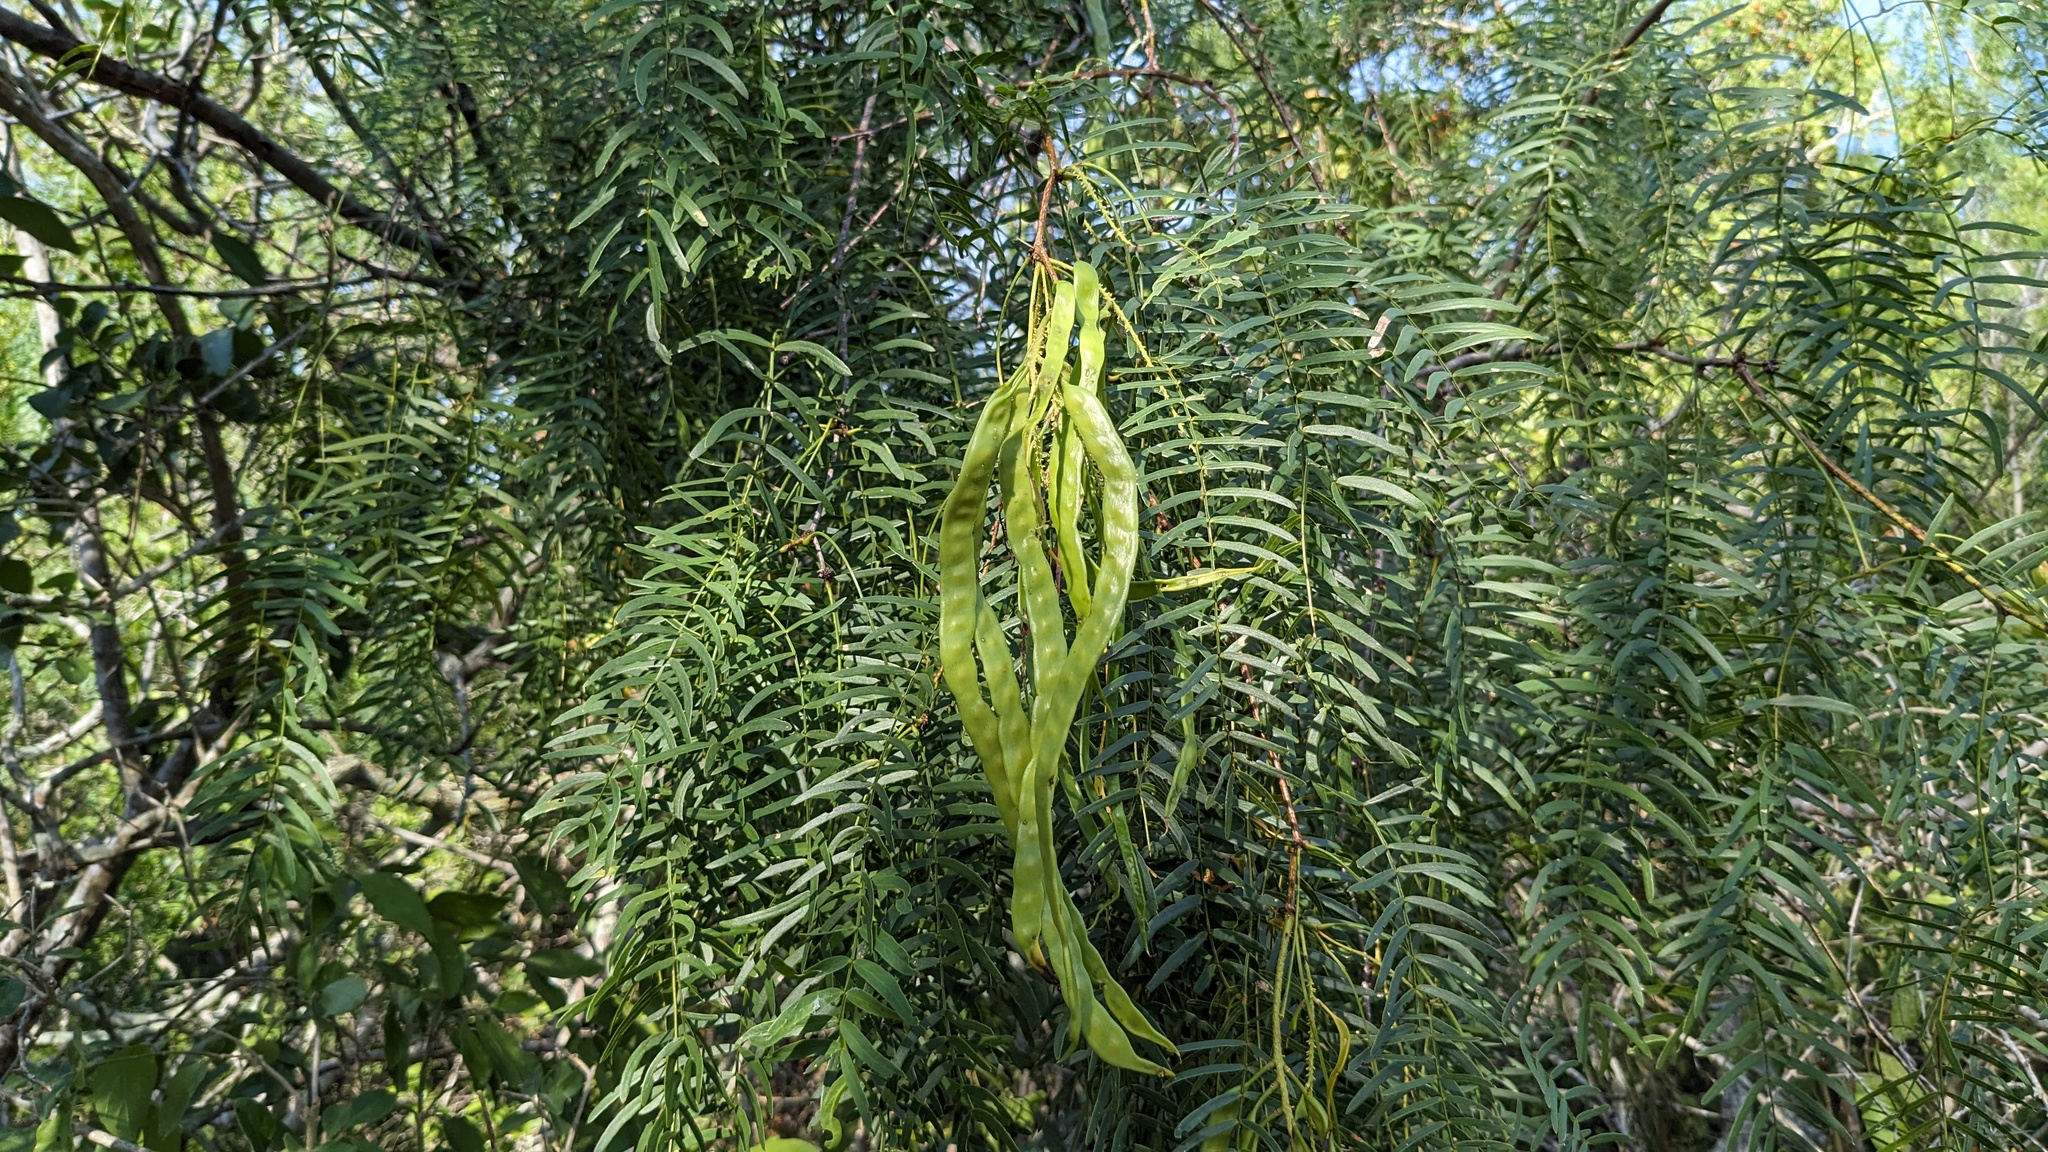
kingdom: Plantae
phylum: Tracheophyta
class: Magnoliopsida
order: Fabales
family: Fabaceae
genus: Prosopis
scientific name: Prosopis glandulosa
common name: Honey mesquite
